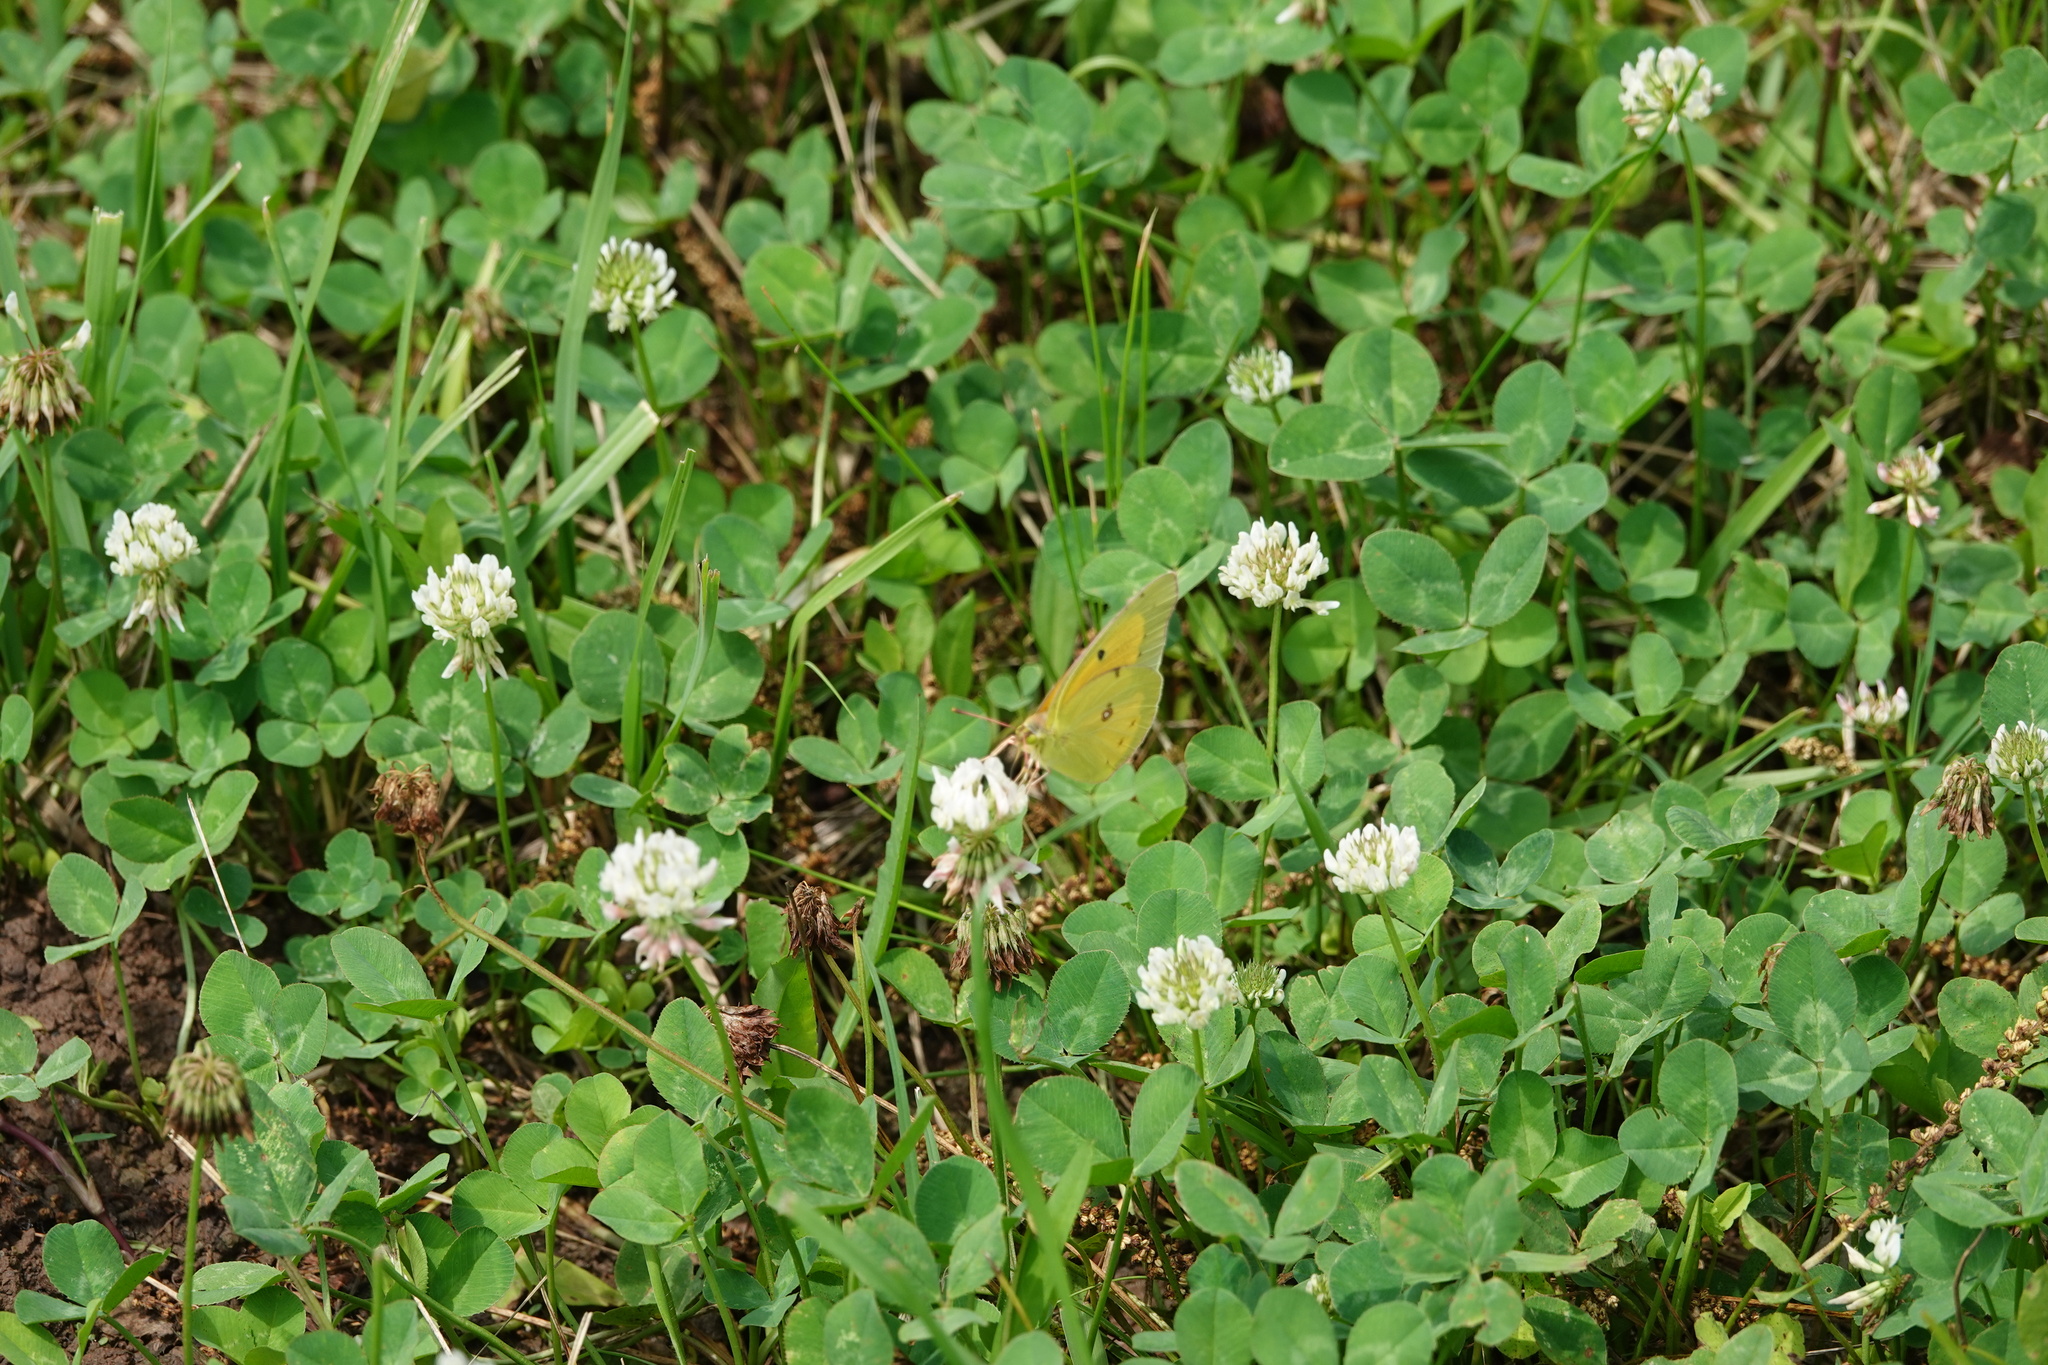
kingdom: Animalia
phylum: Arthropoda
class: Insecta
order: Lepidoptera
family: Pieridae
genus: Colias
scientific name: Colias eurytheme
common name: Alfalfa butterfly
